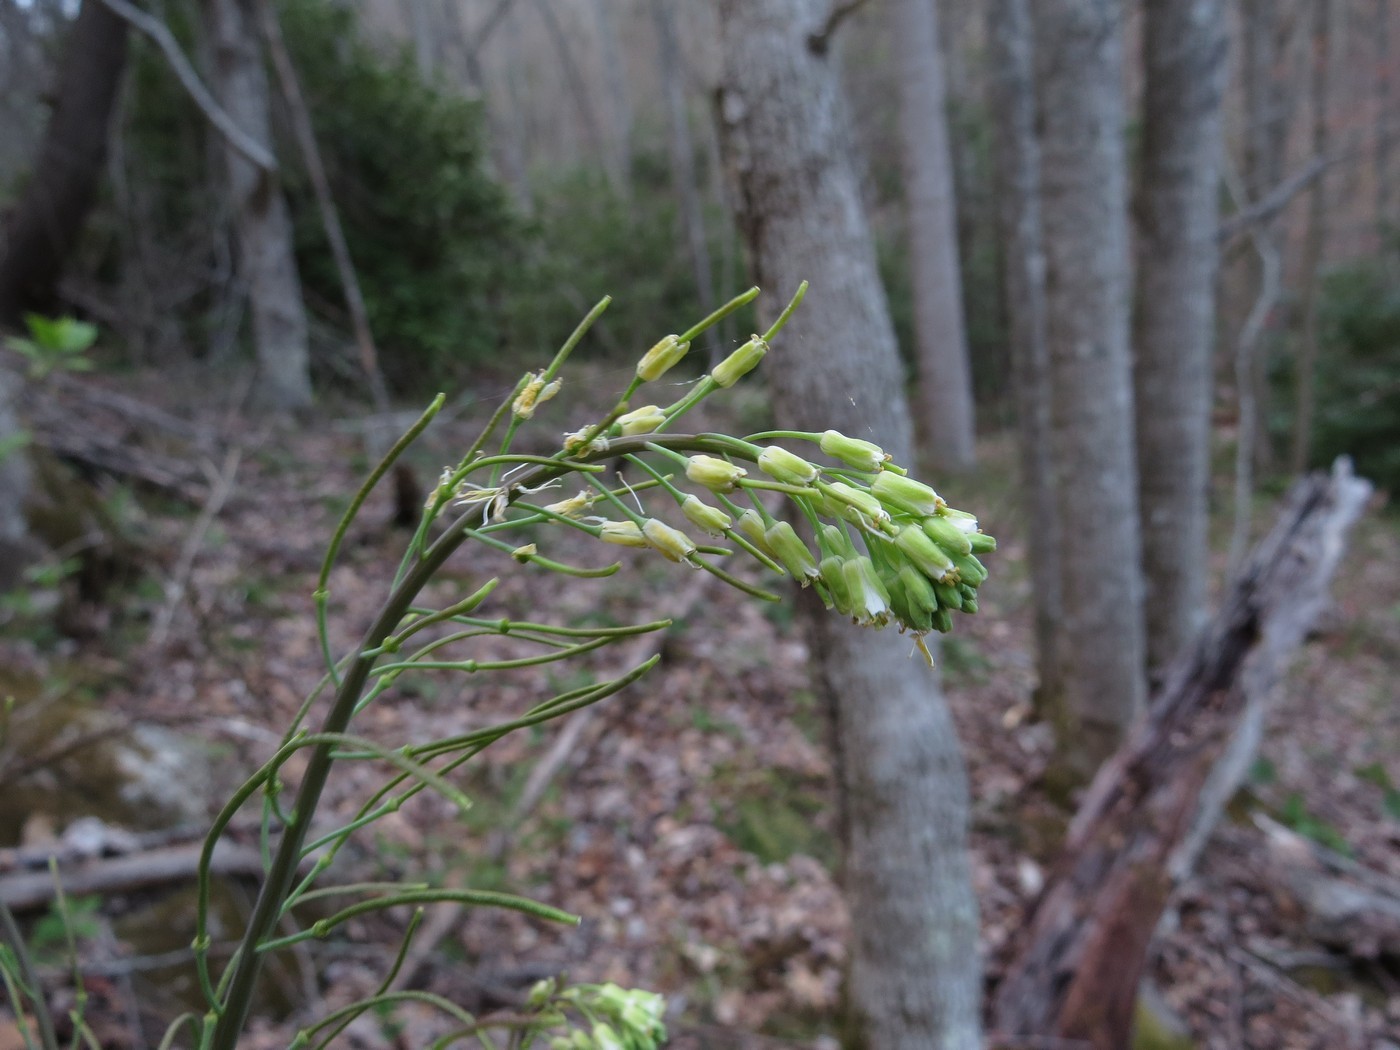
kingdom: Plantae
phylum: Tracheophyta
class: Magnoliopsida
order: Brassicales
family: Brassicaceae
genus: Borodinia
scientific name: Borodinia laevigata
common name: Smooth rockcress
